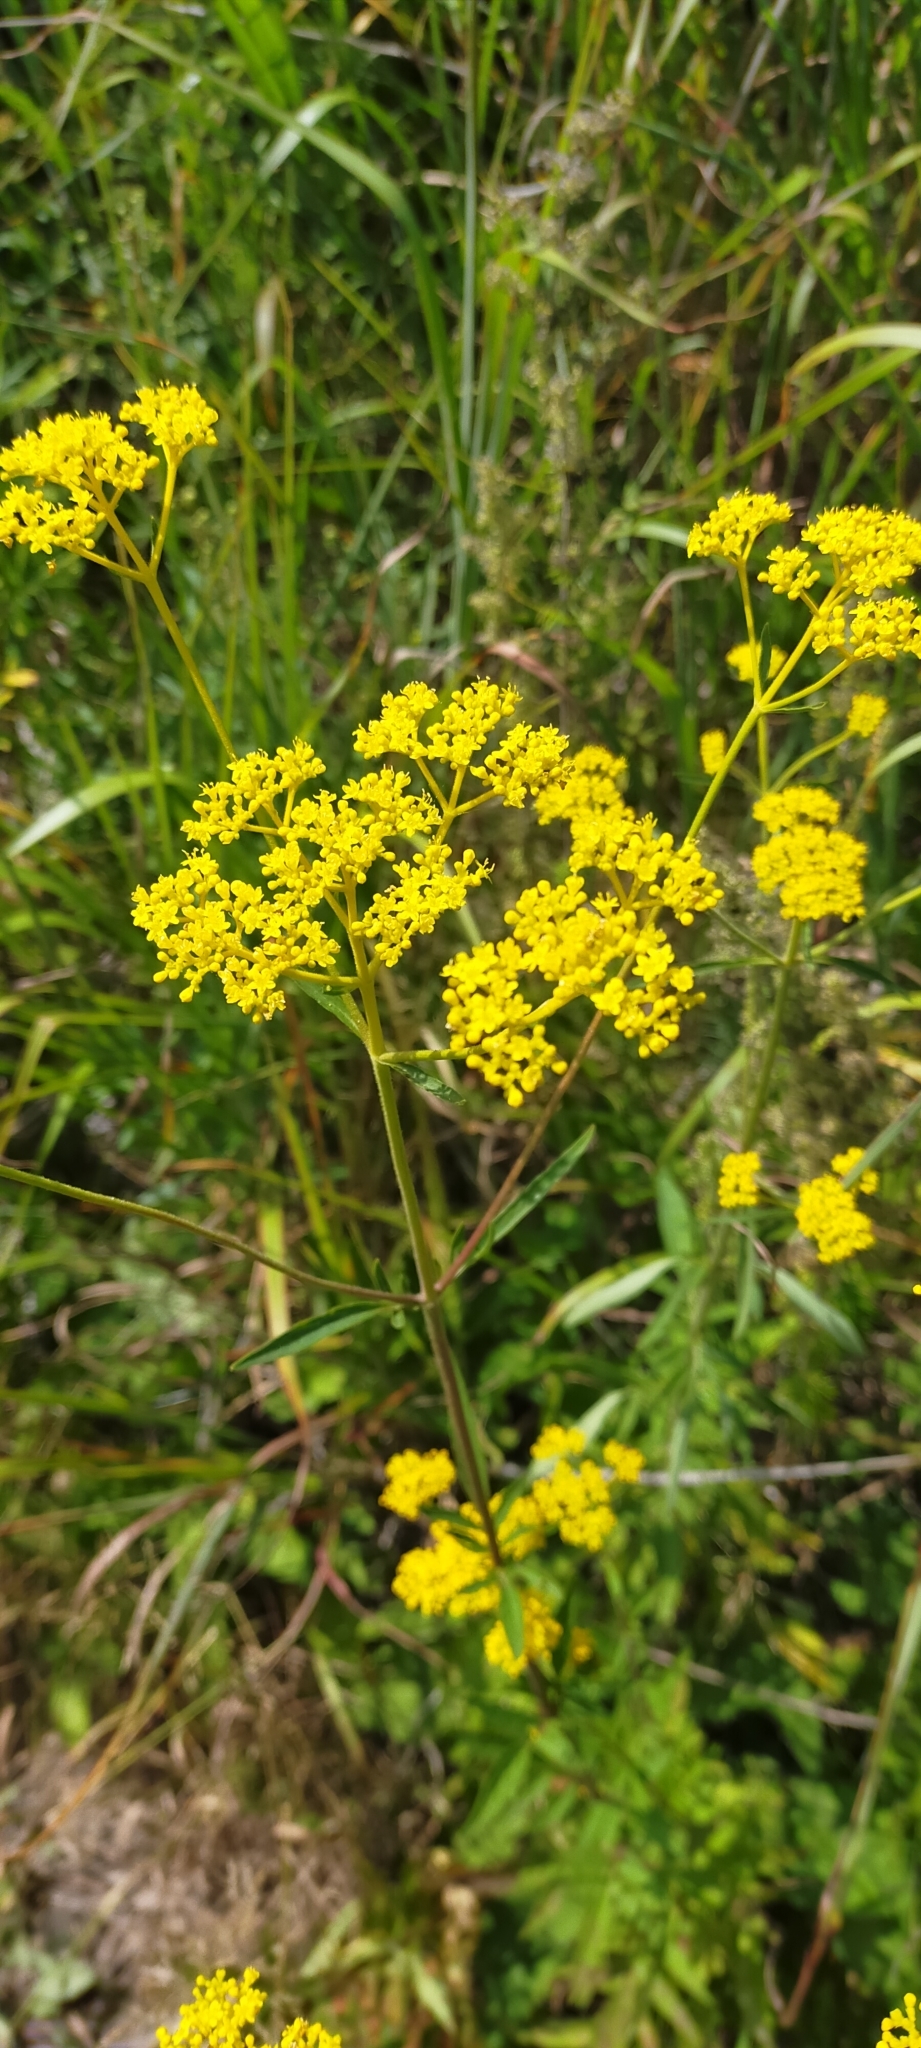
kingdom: Plantae
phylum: Tracheophyta
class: Magnoliopsida
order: Dipsacales
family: Caprifoliaceae
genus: Patrinia
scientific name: Patrinia scabiosifolia
